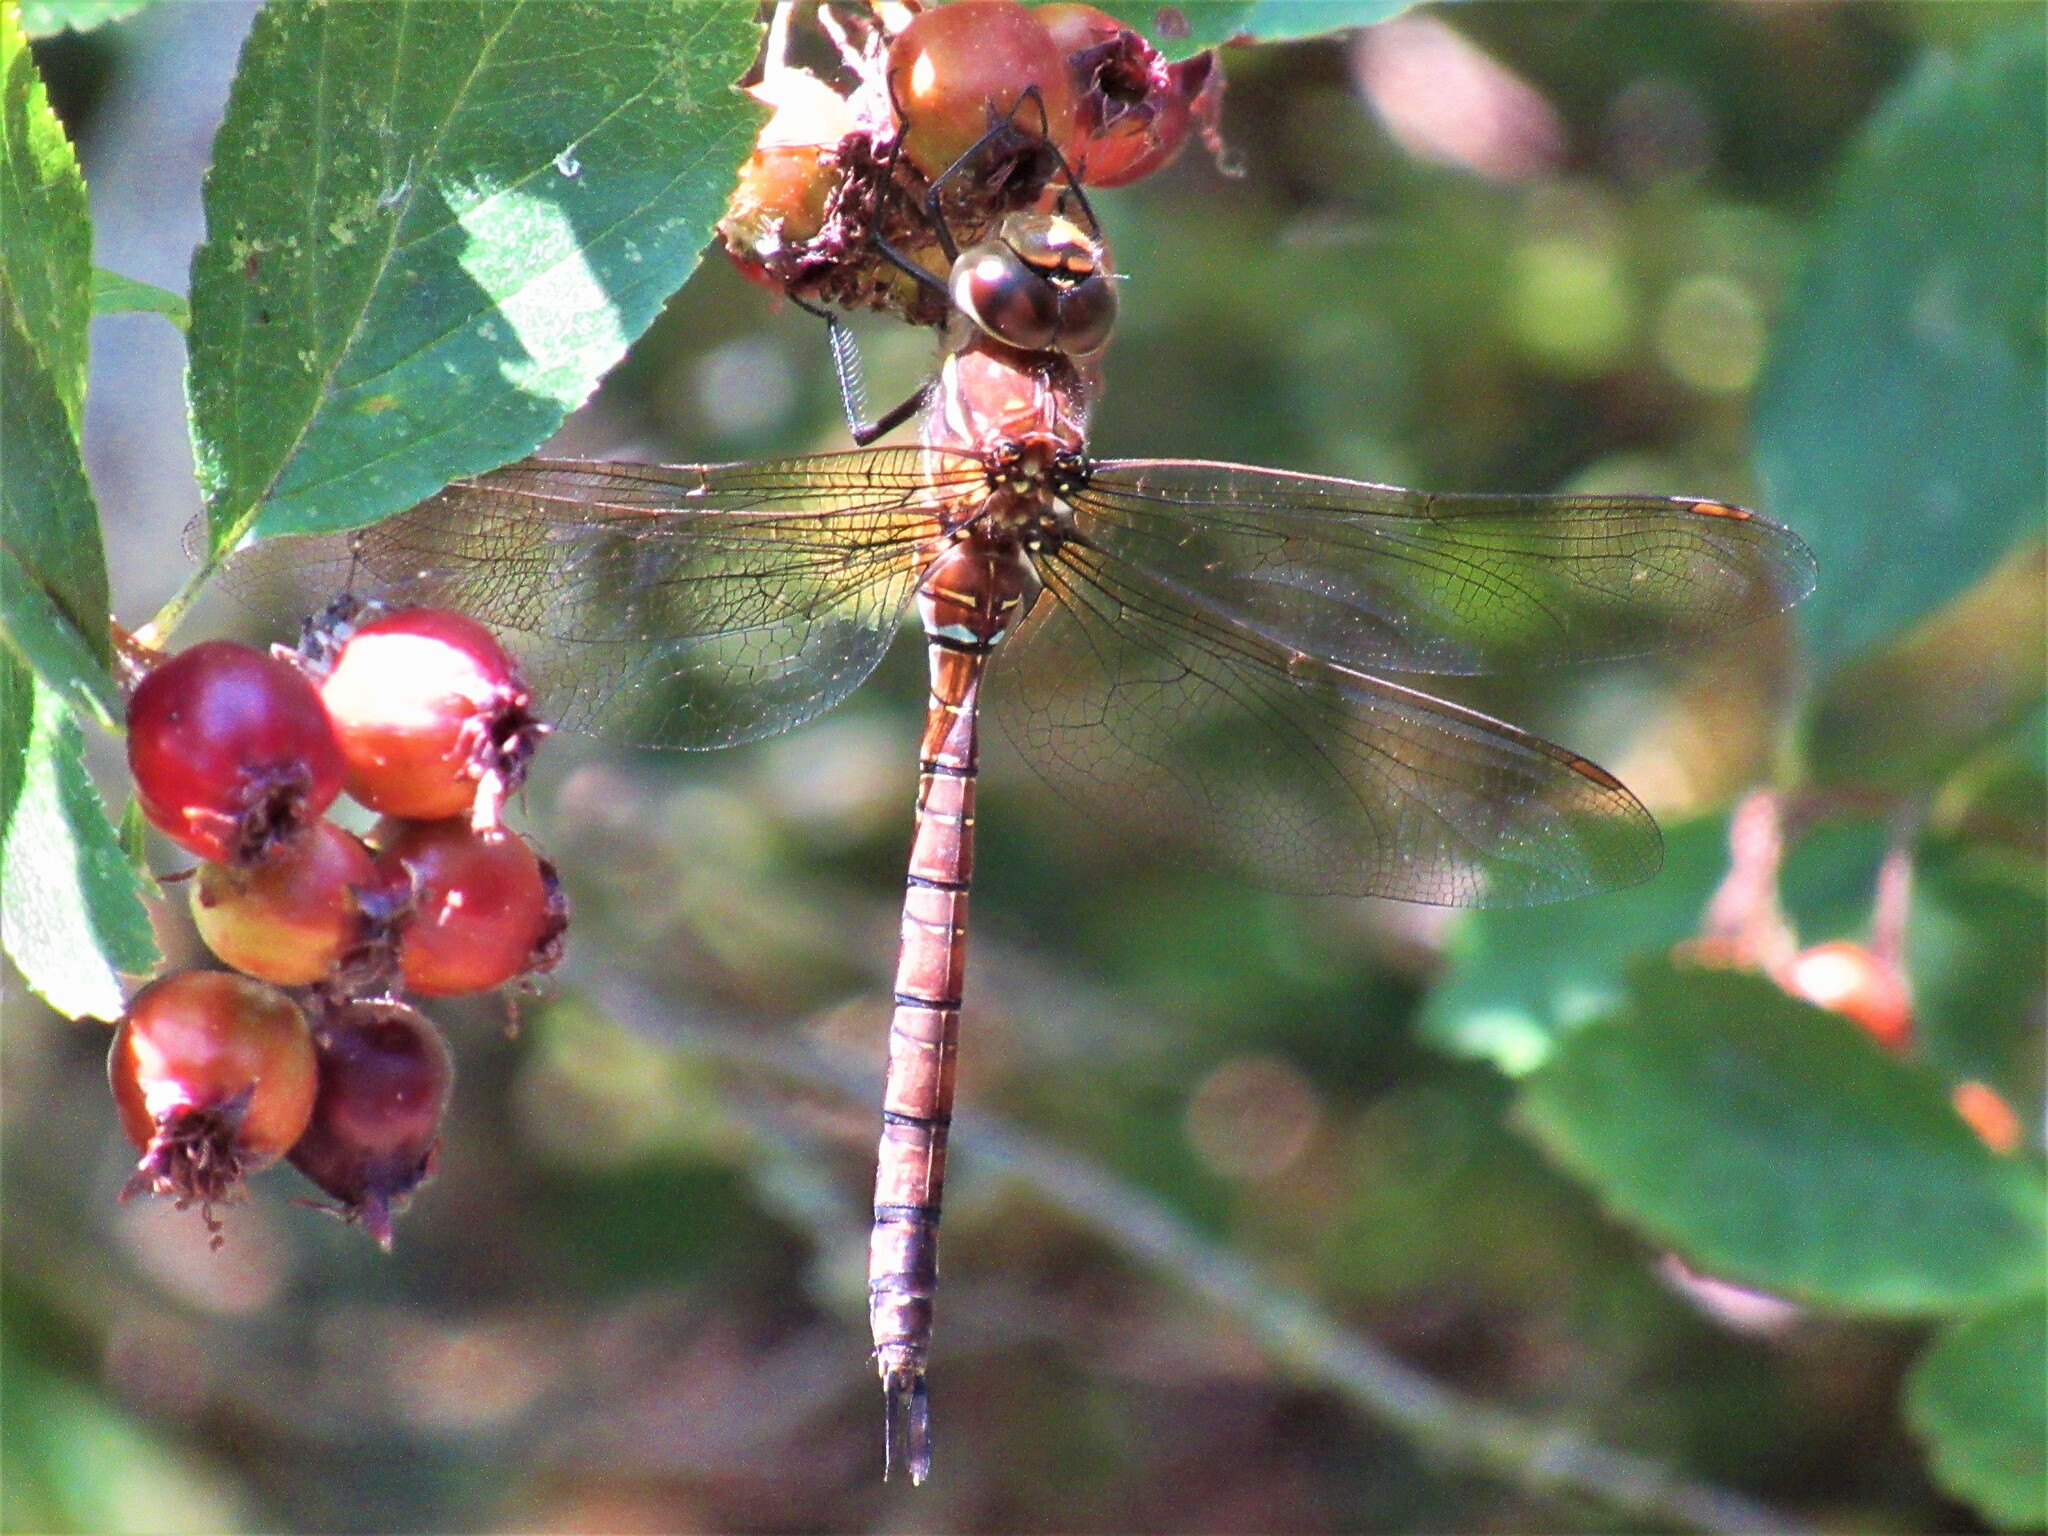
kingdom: Animalia
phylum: Arthropoda
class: Insecta
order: Odonata
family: Aeshnidae
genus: Aeshna
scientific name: Aeshna umbrosa
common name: Shadow darner
